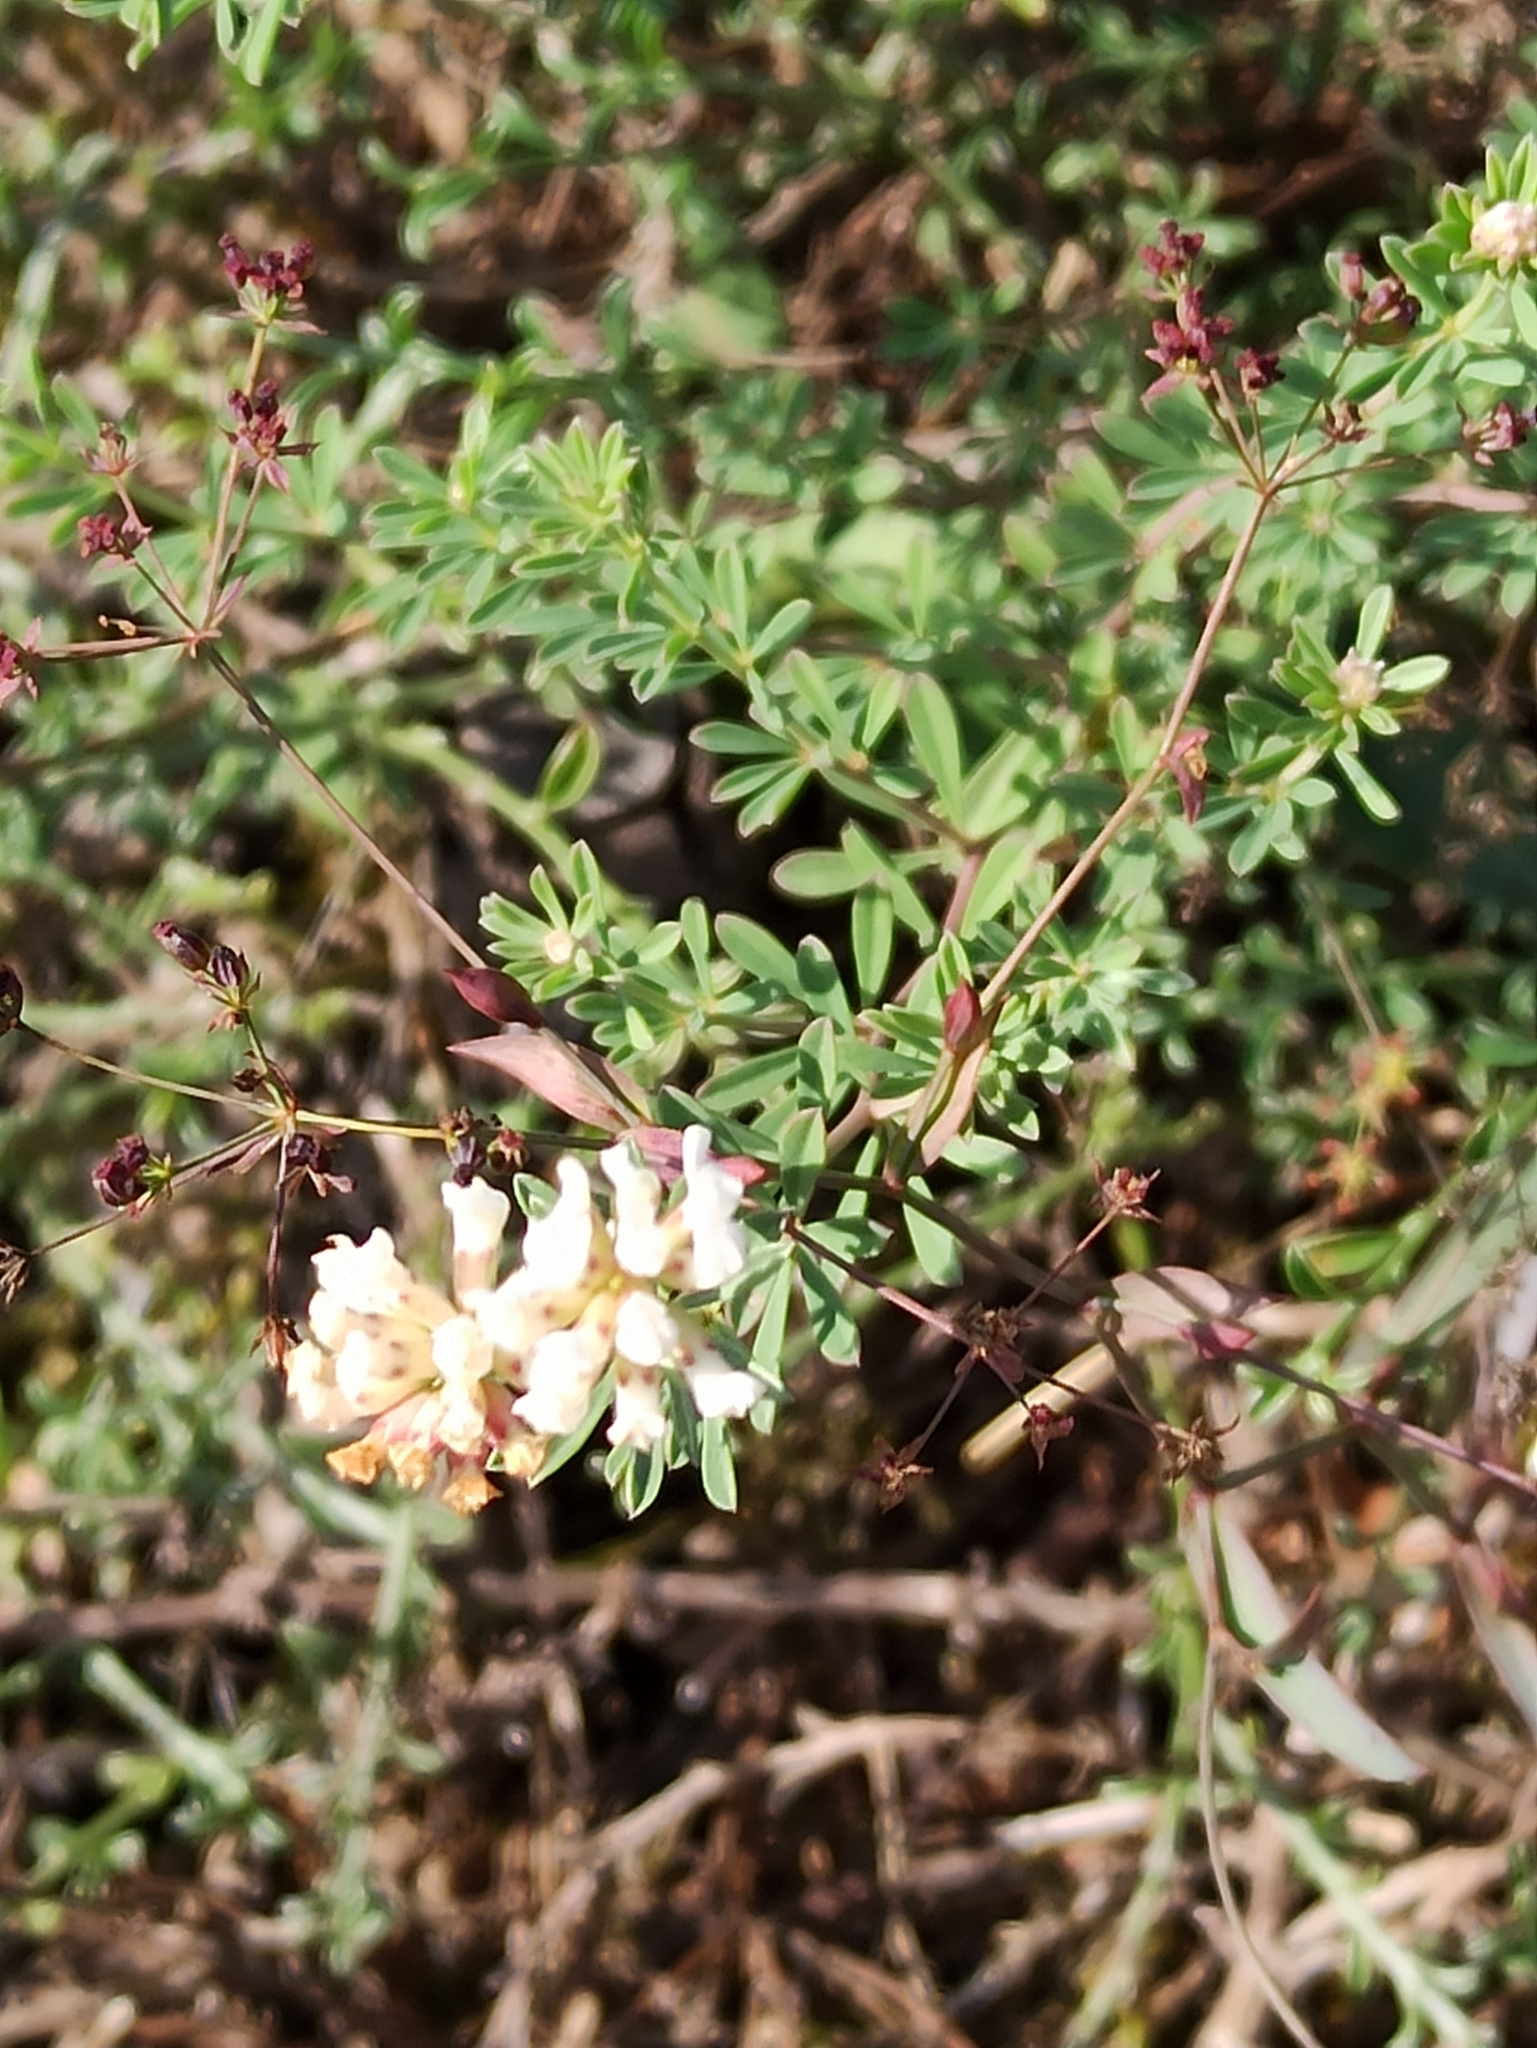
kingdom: Plantae
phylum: Tracheophyta
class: Magnoliopsida
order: Fabales
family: Fabaceae
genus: Lotus
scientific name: Lotus germanicus
